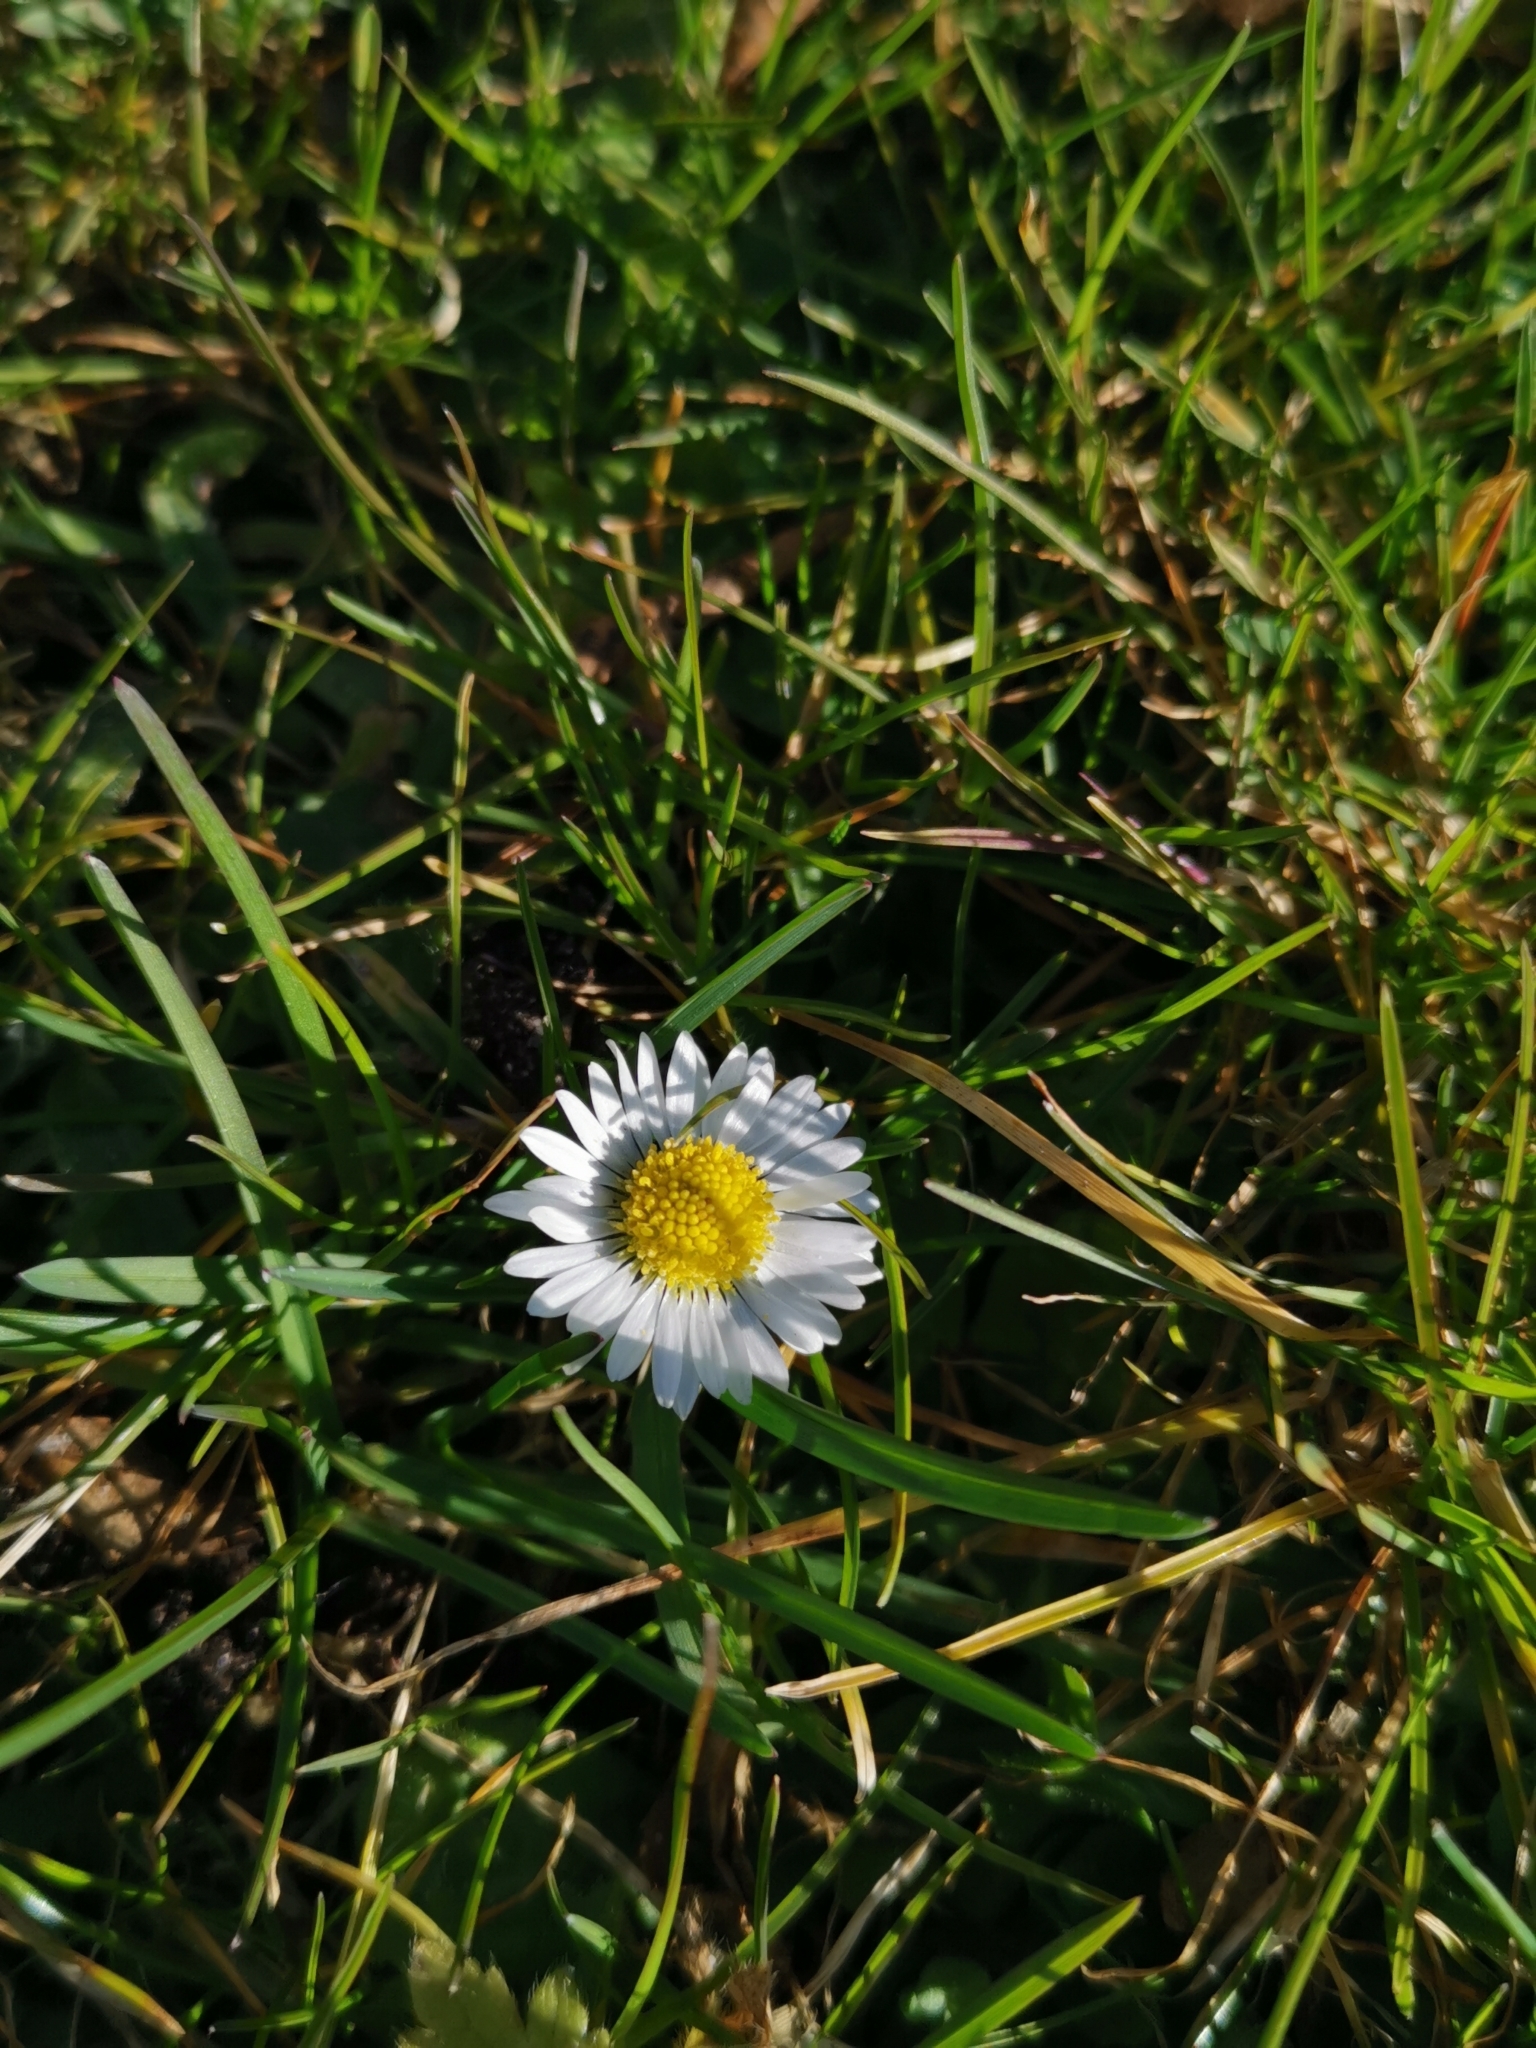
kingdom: Plantae
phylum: Tracheophyta
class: Magnoliopsida
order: Asterales
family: Asteraceae
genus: Bellis
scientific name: Bellis perennis
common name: Lawndaisy
